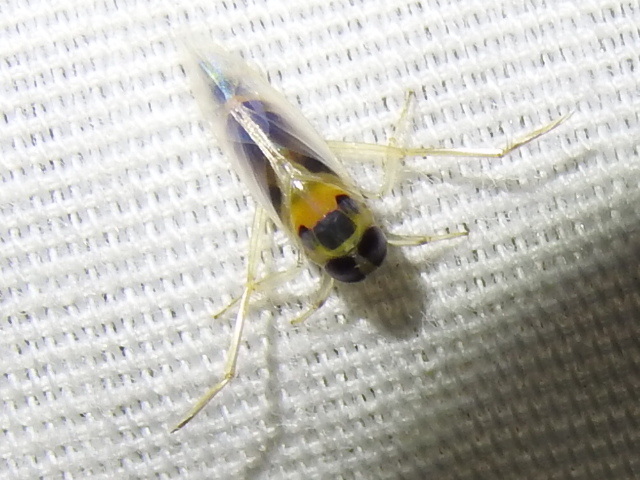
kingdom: Animalia
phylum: Arthropoda
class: Insecta
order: Hemiptera
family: Notonectidae
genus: Buenoa
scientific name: Buenoa
